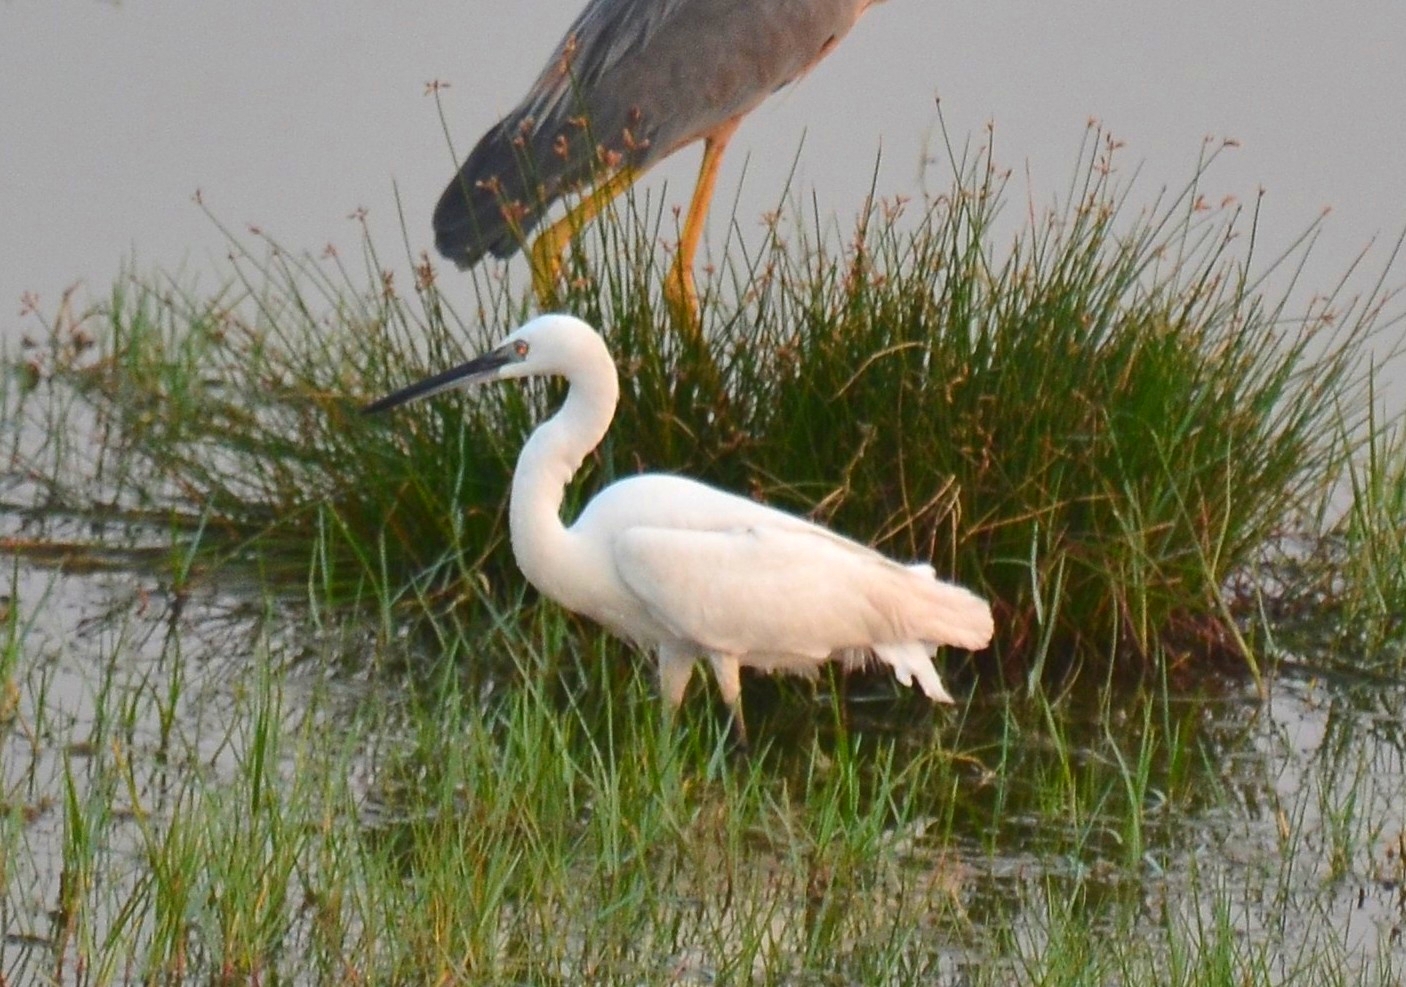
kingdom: Animalia
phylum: Chordata
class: Aves
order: Pelecaniformes
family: Ardeidae
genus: Egretta
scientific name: Egretta garzetta
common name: Little egret
